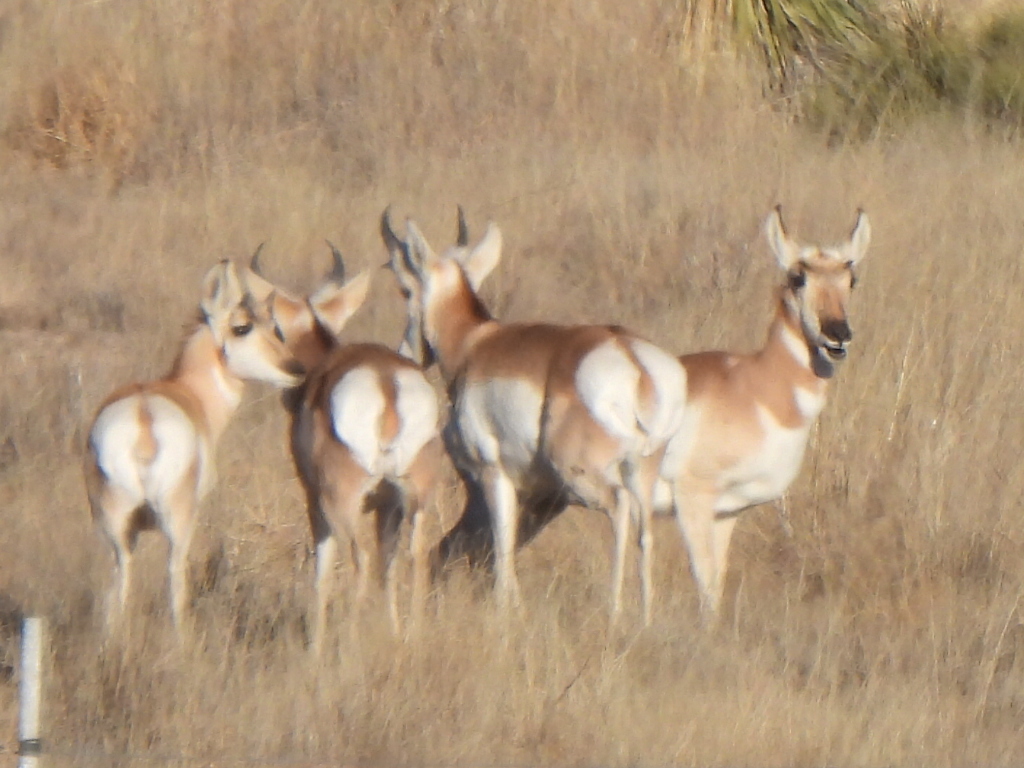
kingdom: Animalia
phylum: Chordata
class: Mammalia
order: Artiodactyla
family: Antilocapridae
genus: Antilocapra
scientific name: Antilocapra americana
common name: Pronghorn
